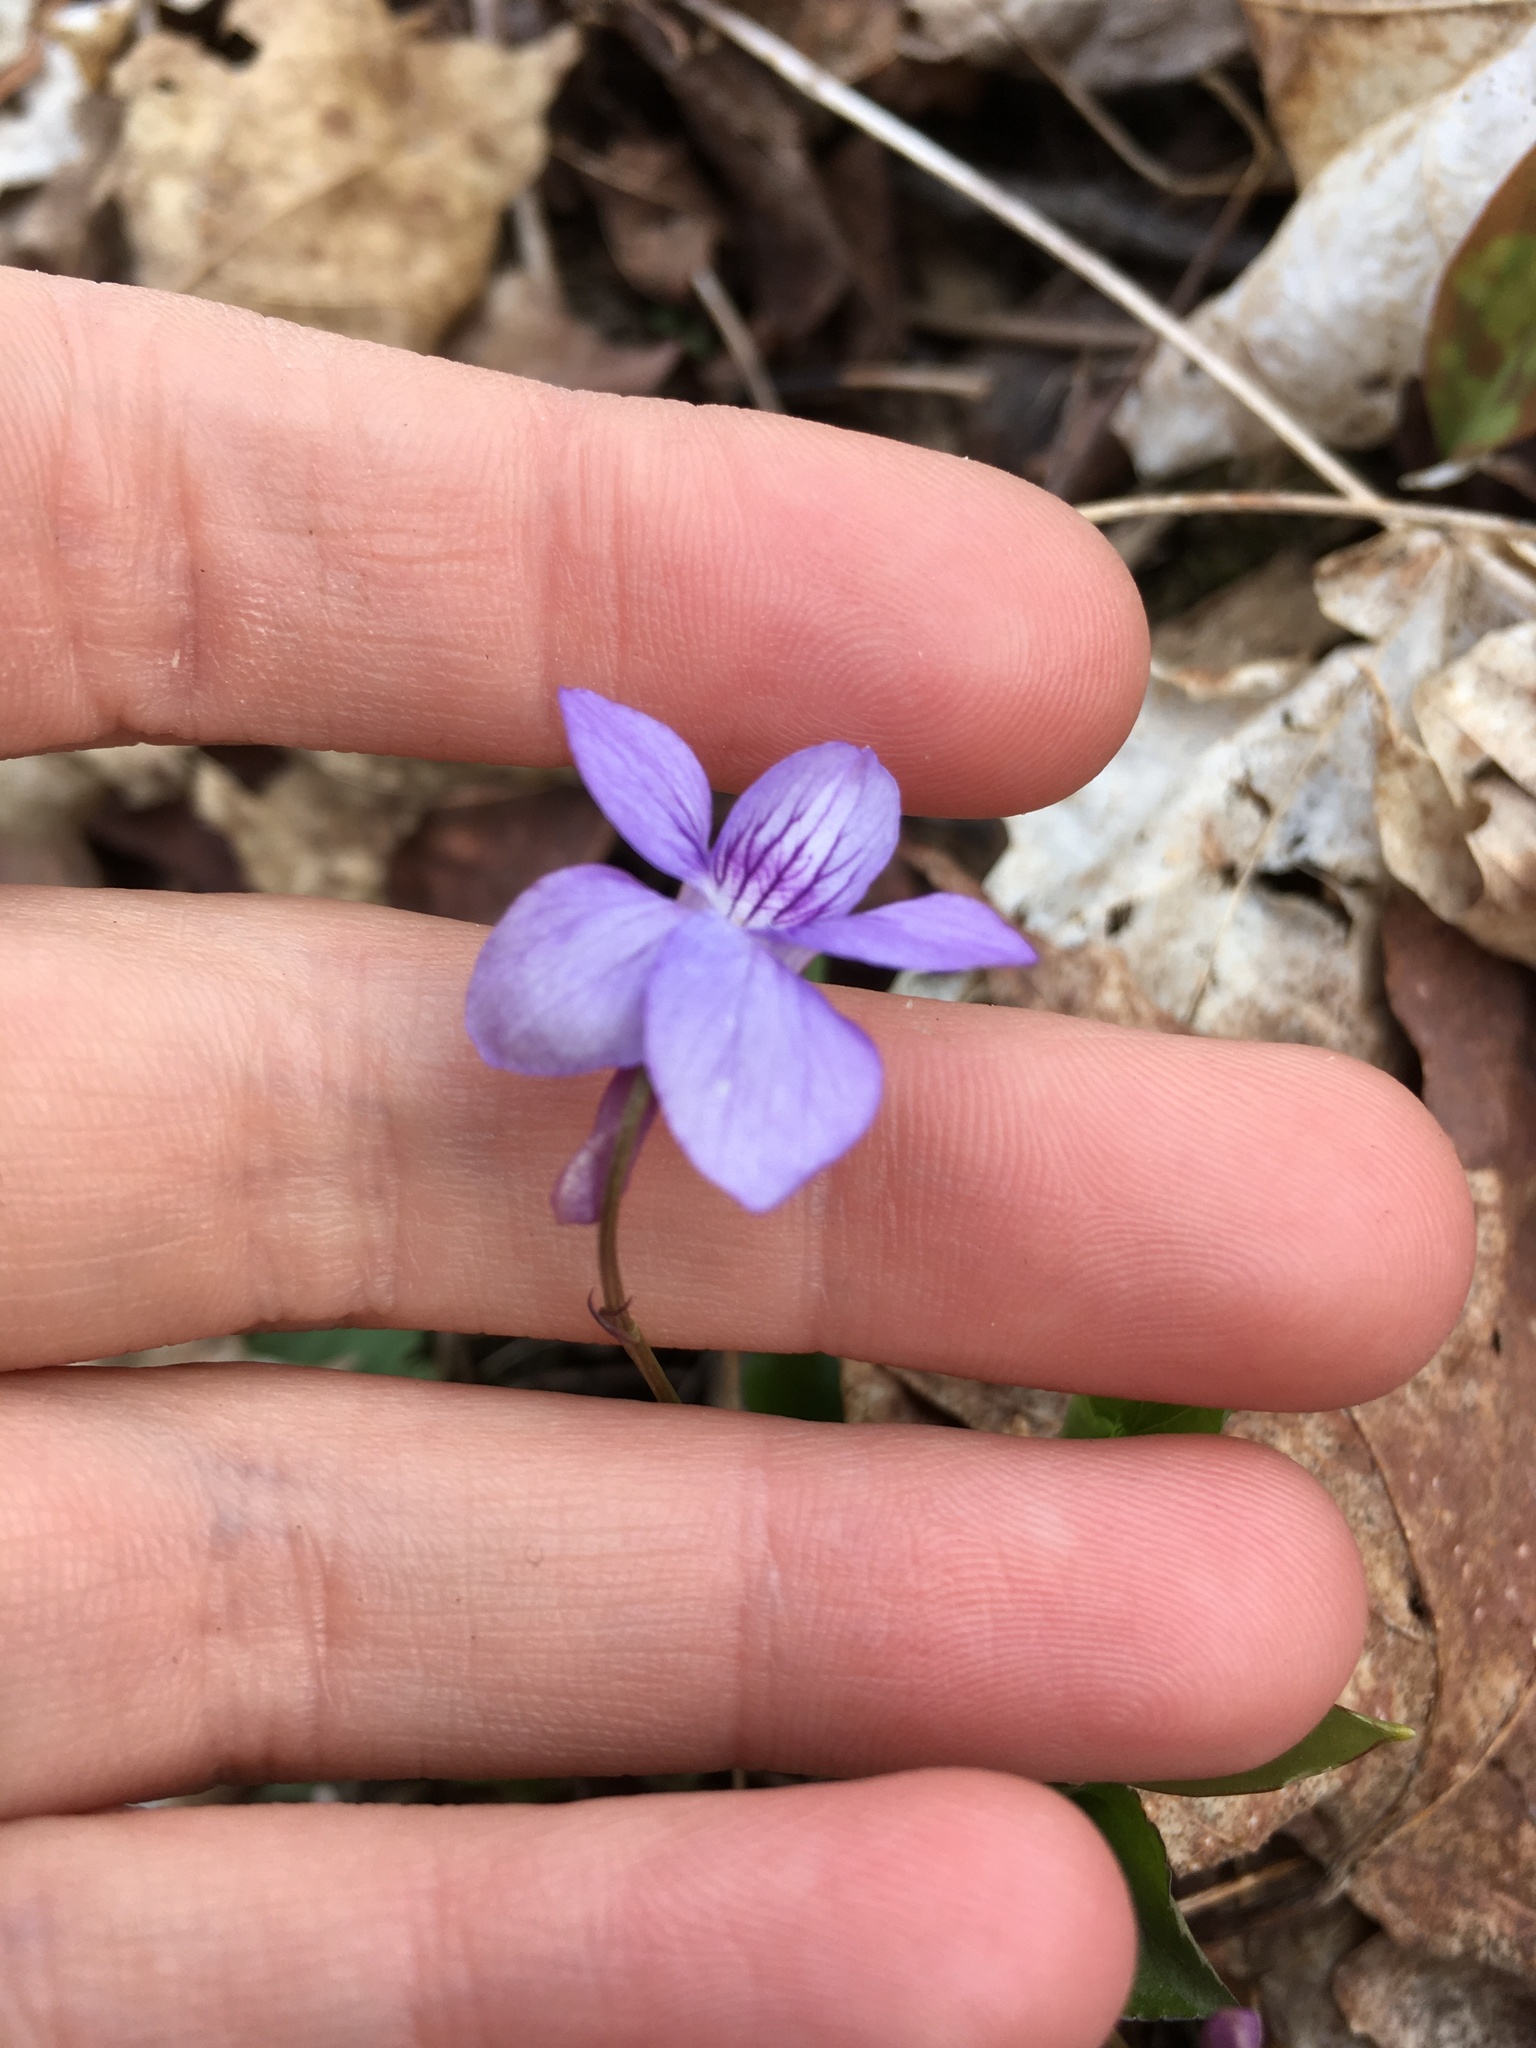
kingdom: Plantae
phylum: Tracheophyta
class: Magnoliopsida
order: Malpighiales
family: Violaceae
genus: Viola
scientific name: Viola rostrata
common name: Long-spur violet
